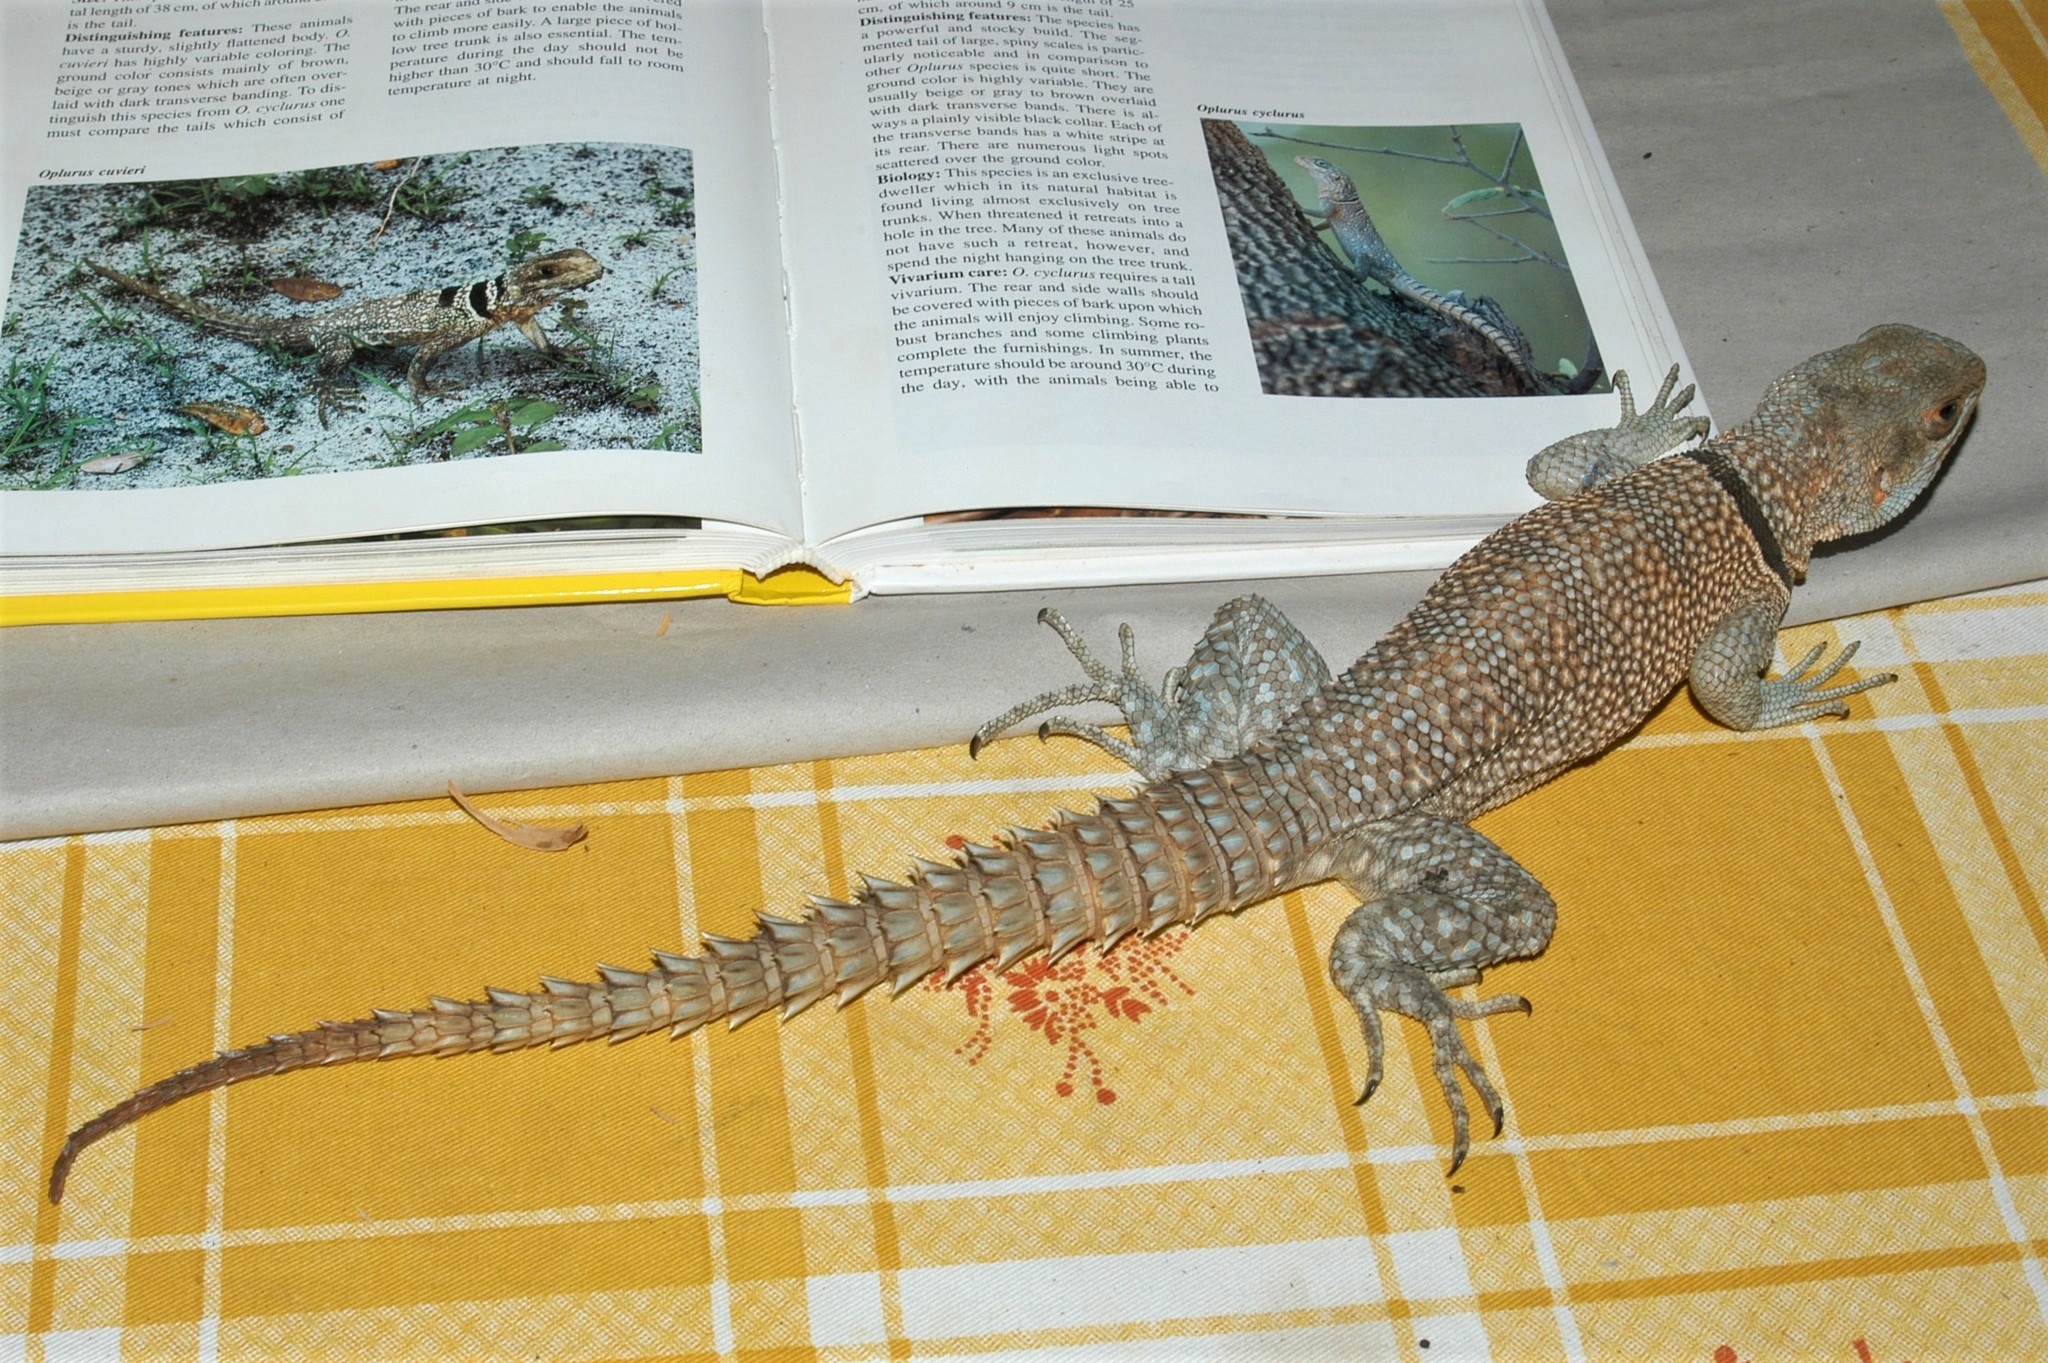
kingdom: Animalia
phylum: Chordata
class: Squamata
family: Opluridae
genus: Oplurus
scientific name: Oplurus cuvieri
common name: Cuvier's madagascar swift
